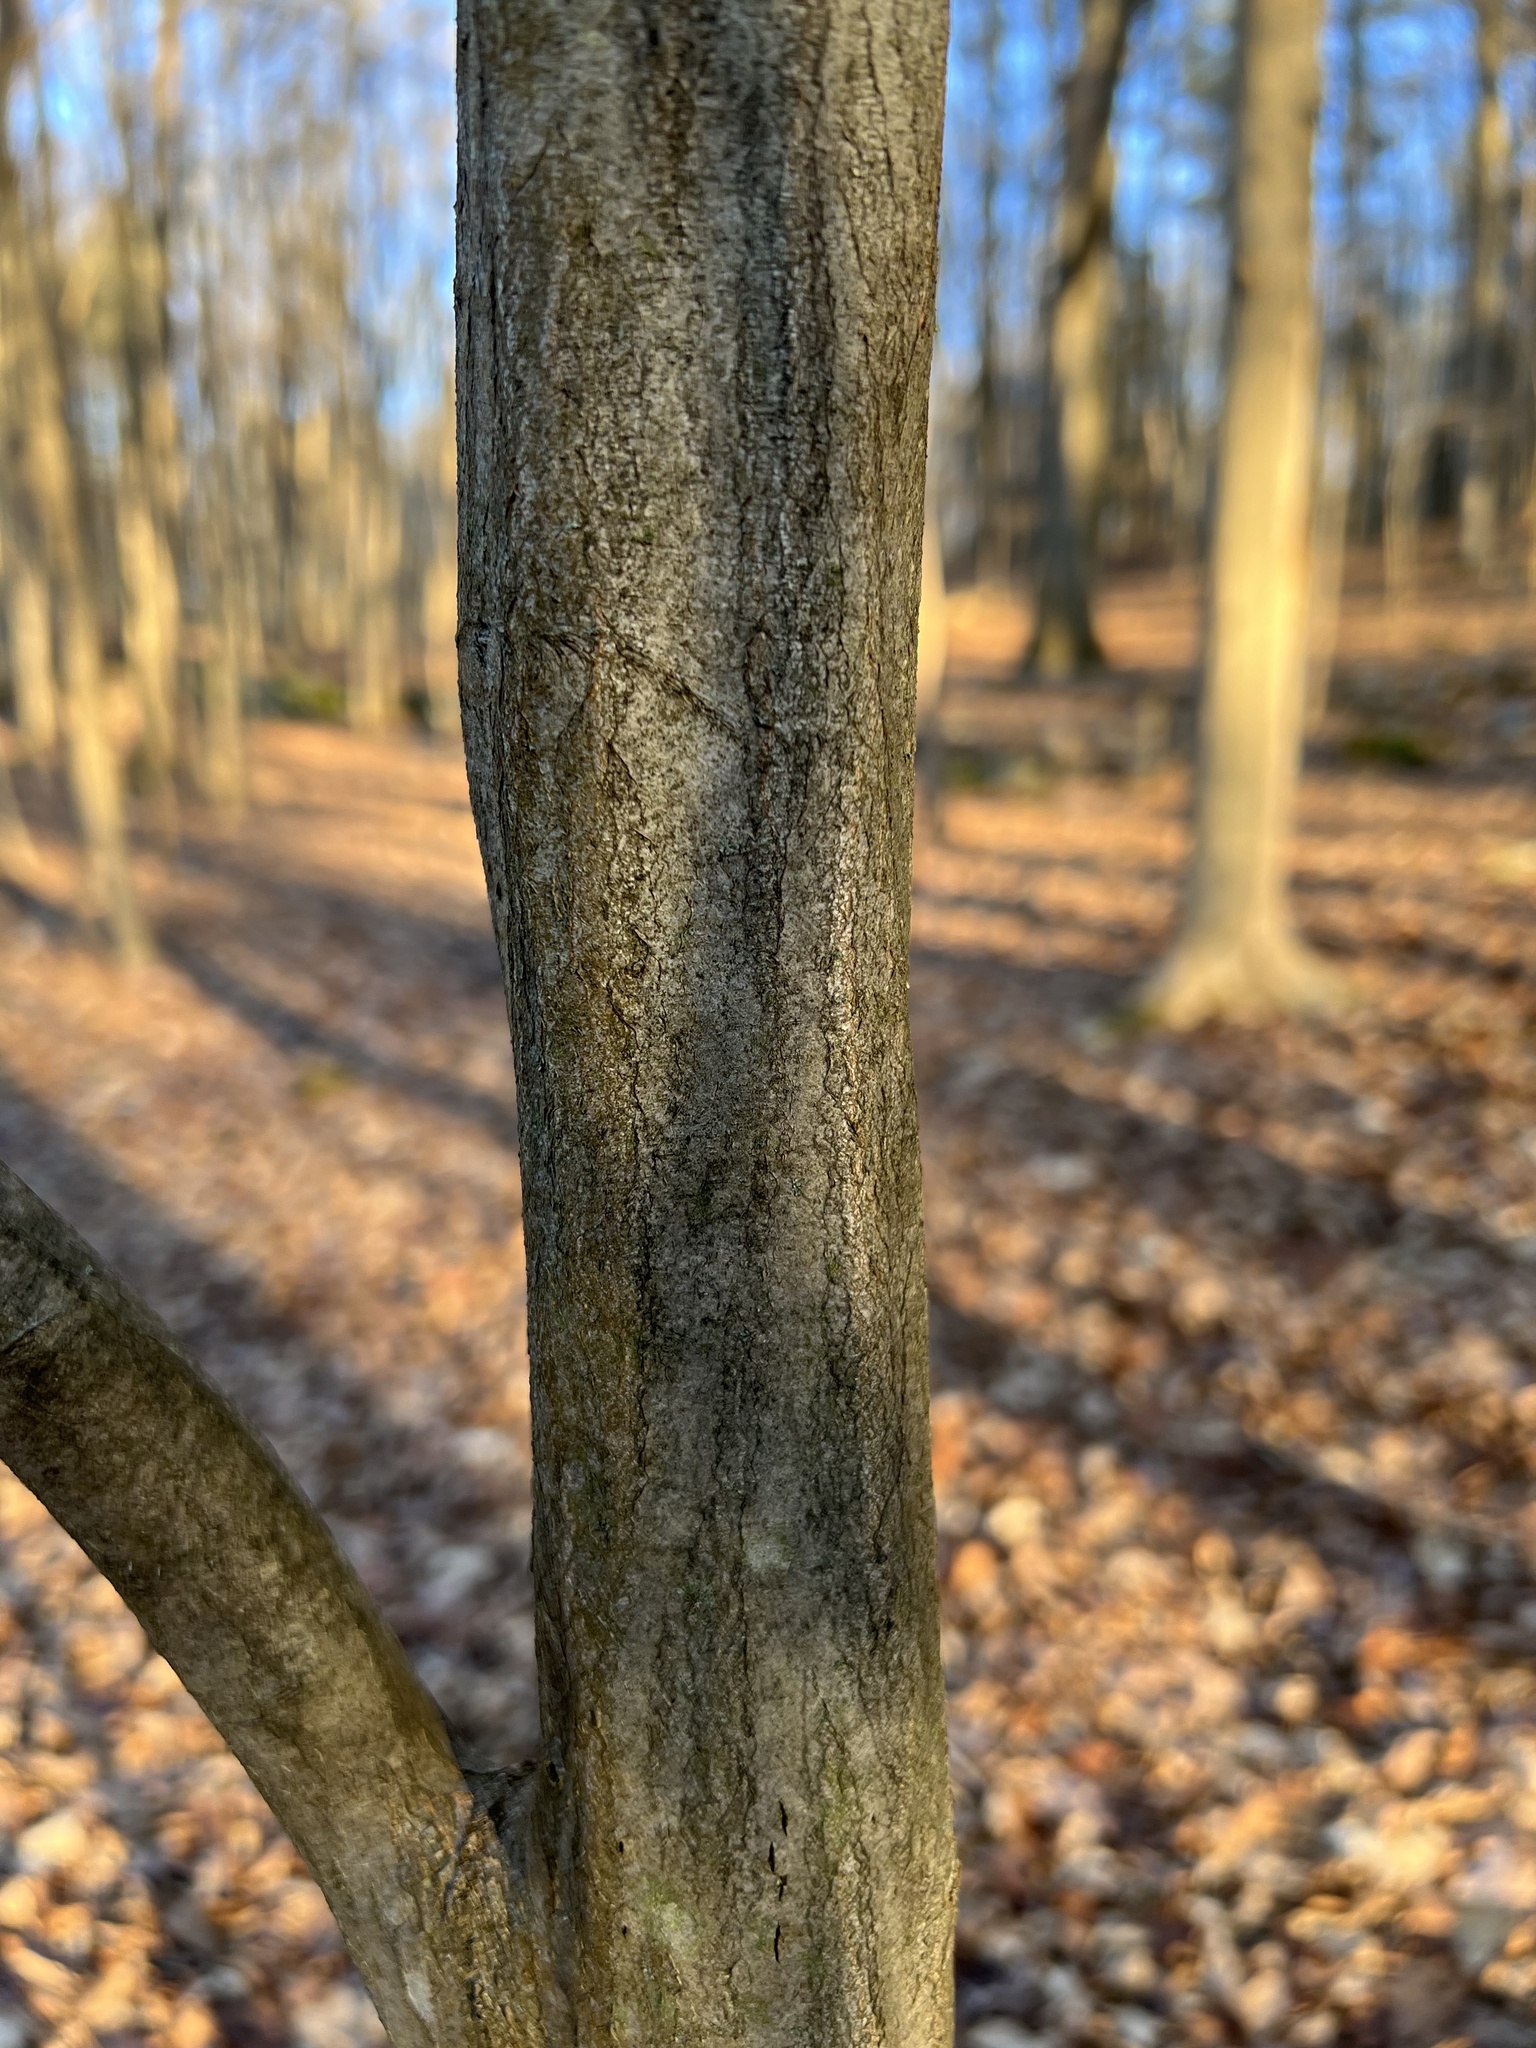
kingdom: Plantae
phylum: Tracheophyta
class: Magnoliopsida
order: Fagales
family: Betulaceae
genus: Carpinus
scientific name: Carpinus caroliniana
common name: American hornbeam
